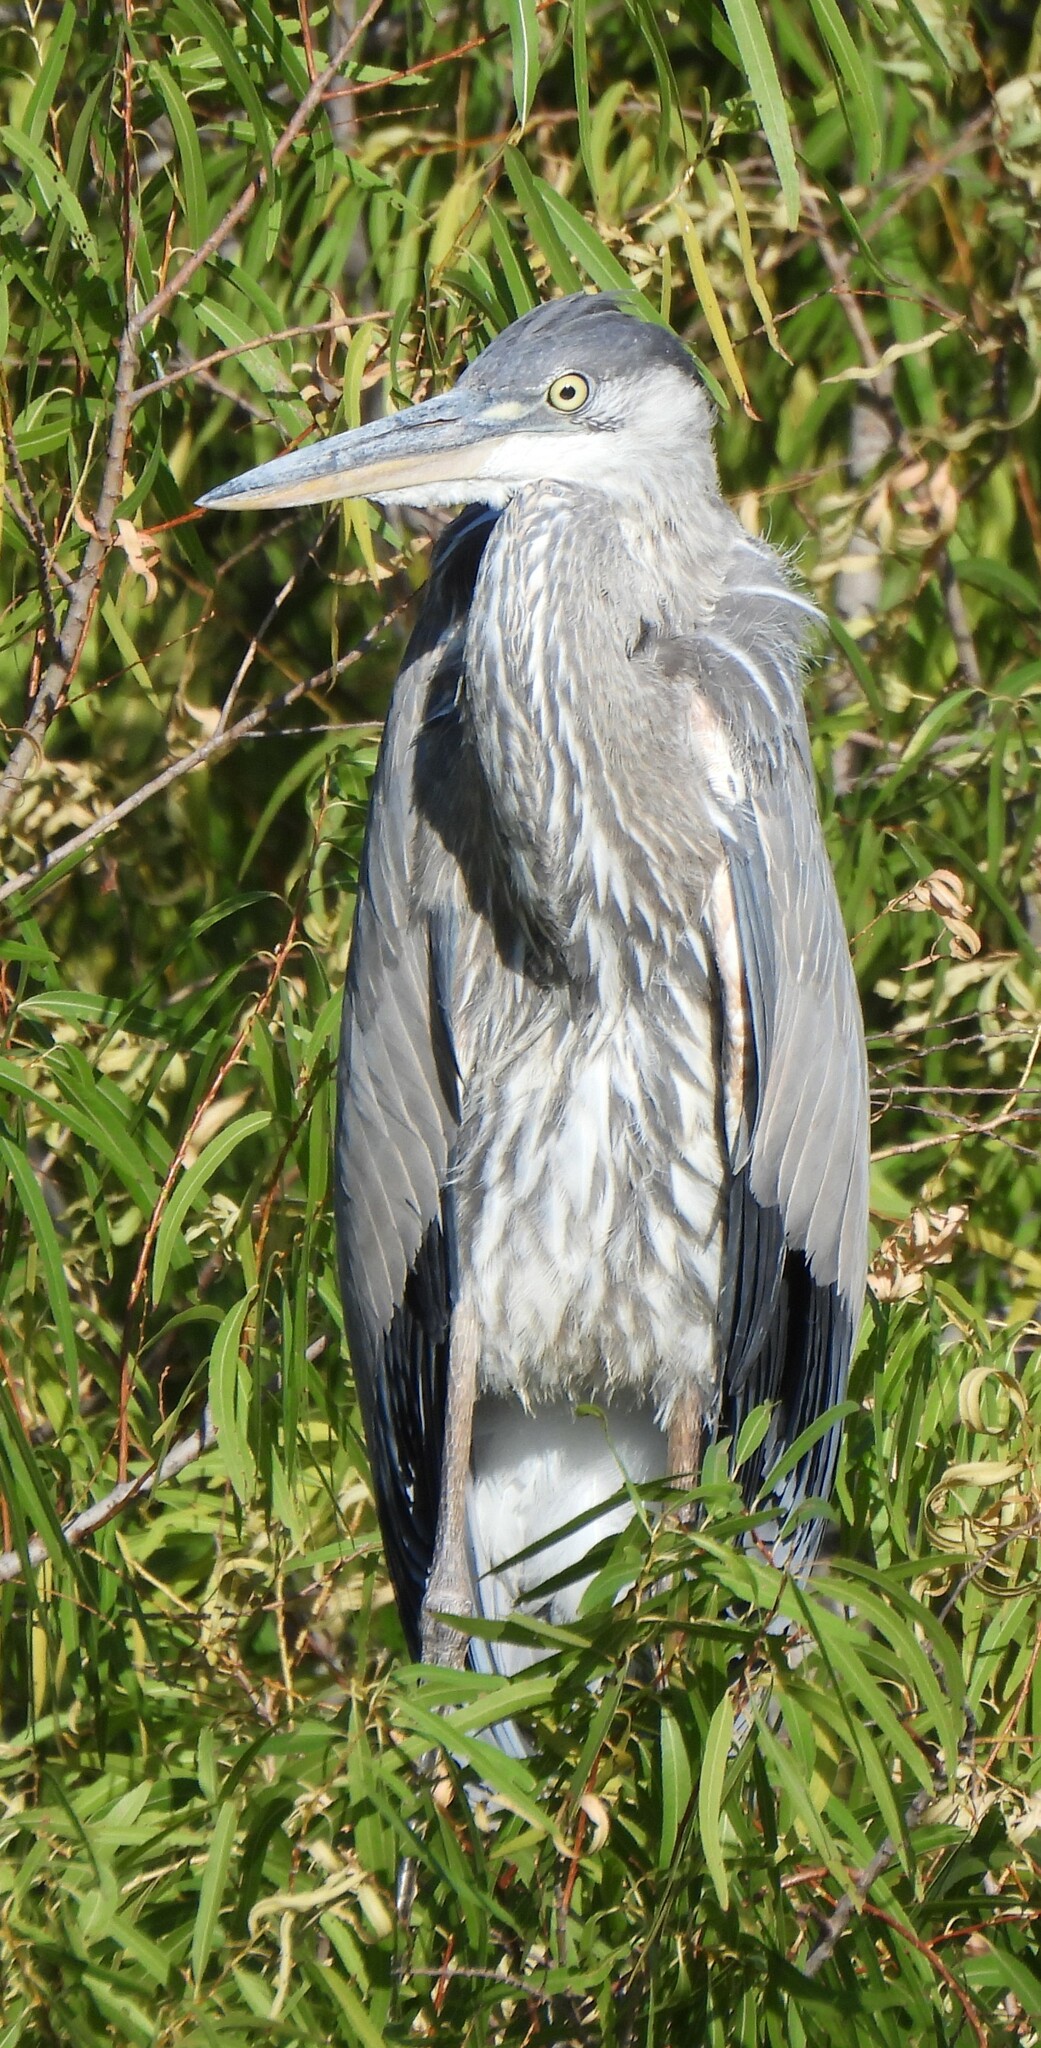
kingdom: Animalia
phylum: Chordata
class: Aves
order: Pelecaniformes
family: Ardeidae
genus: Ardea
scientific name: Ardea herodias
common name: Great blue heron
